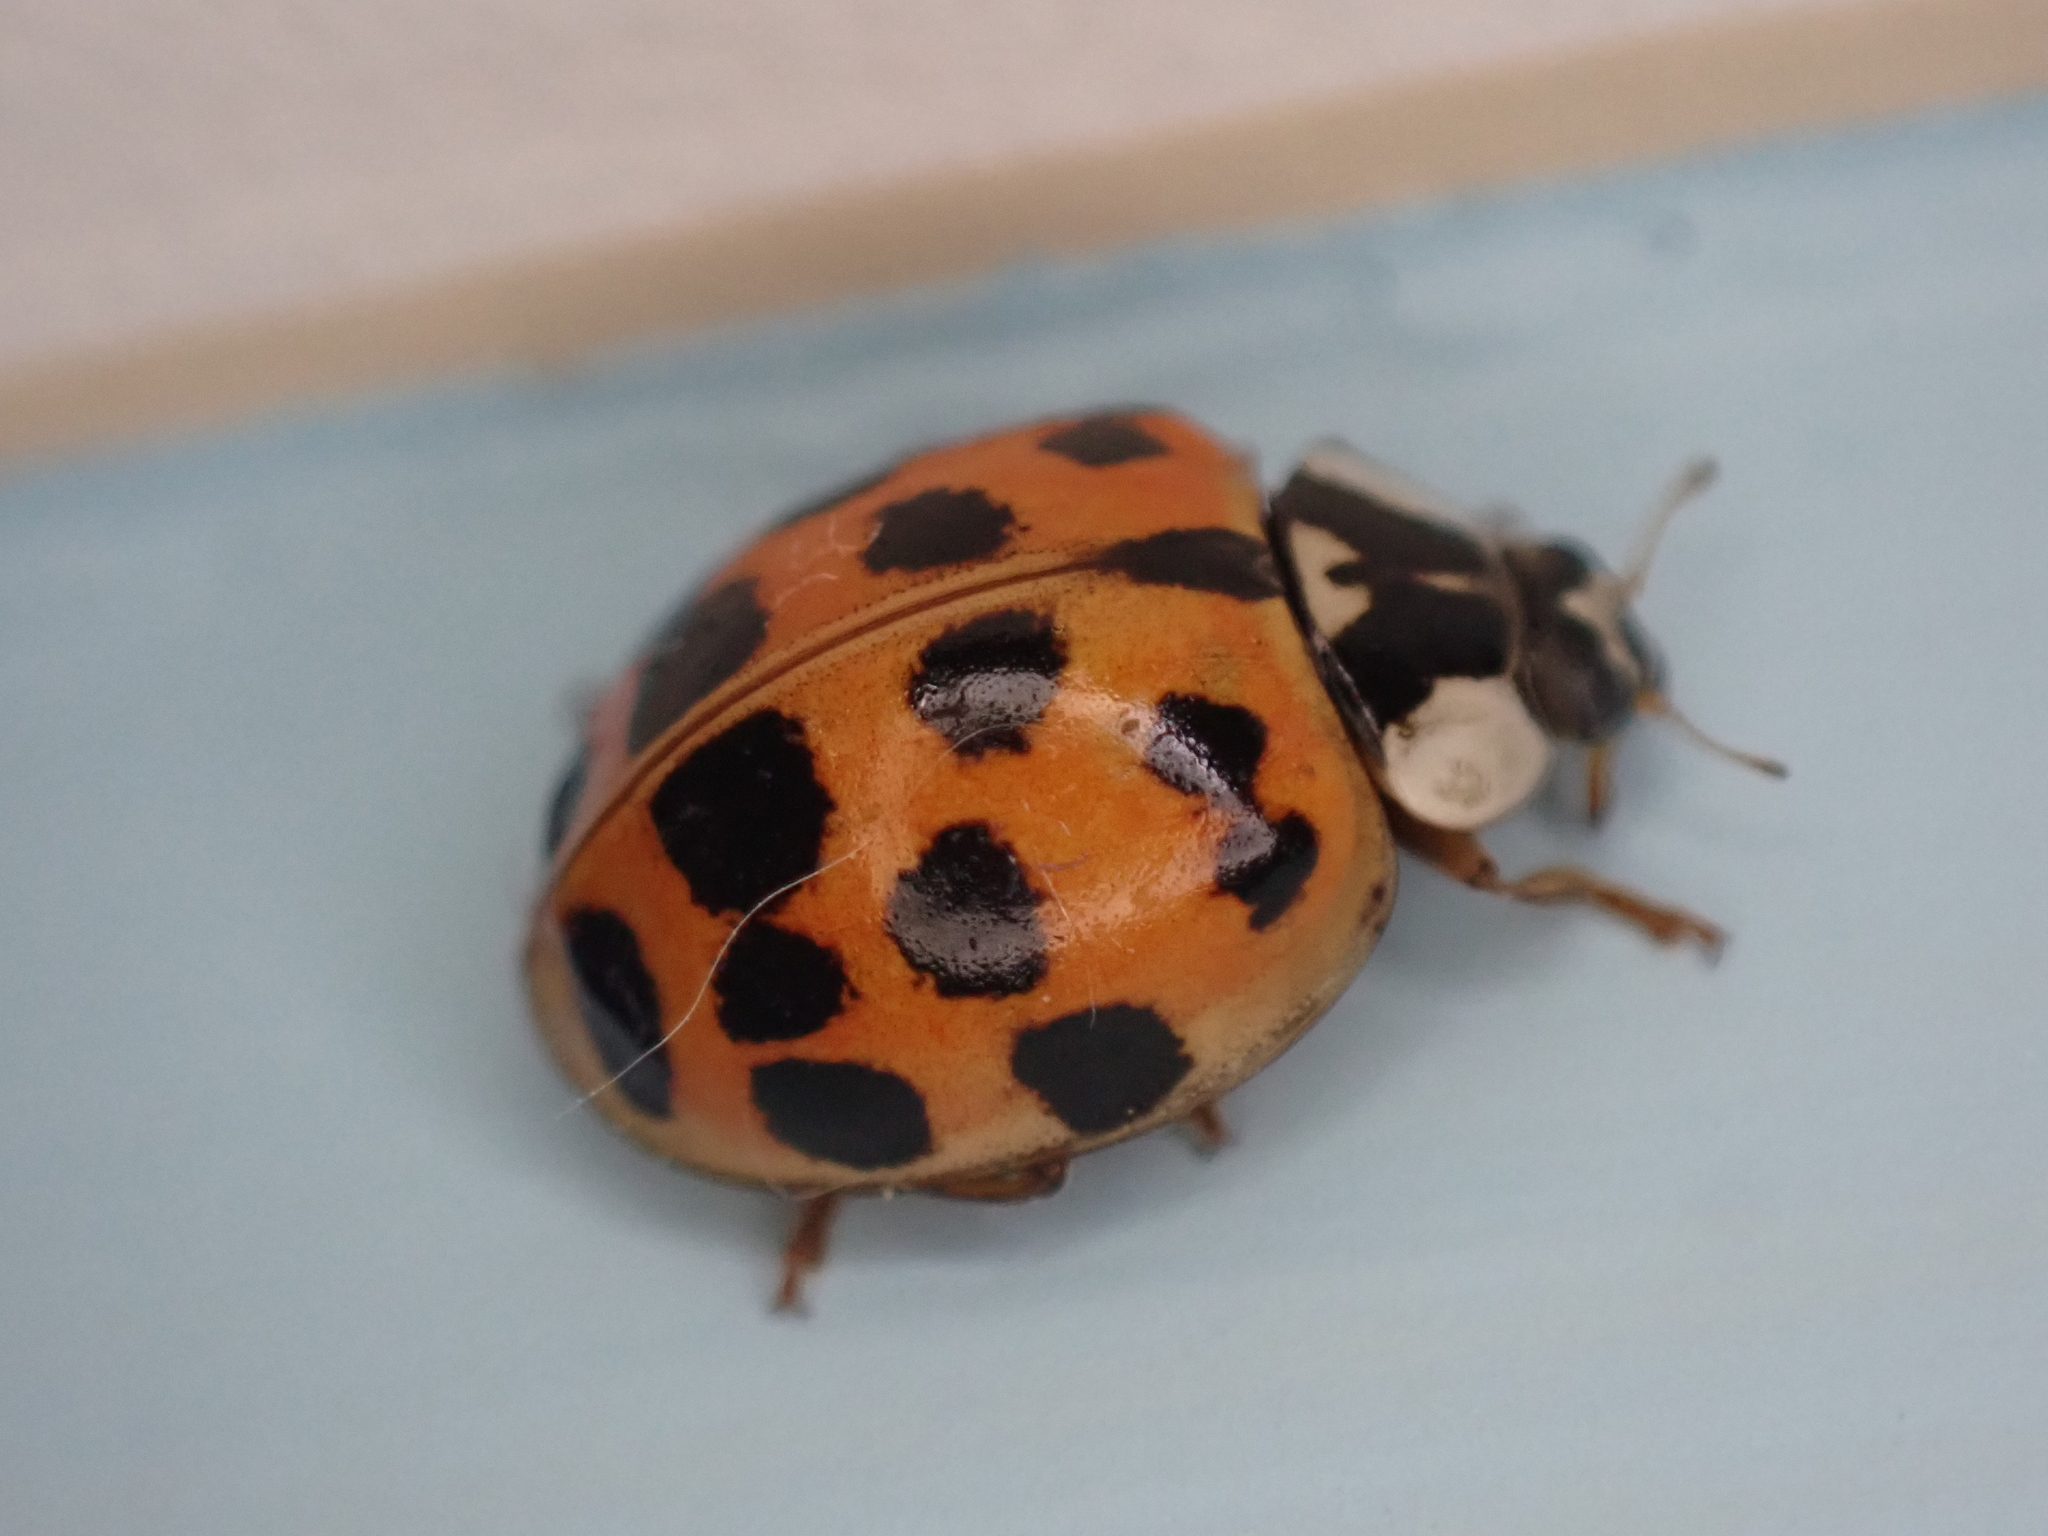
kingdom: Animalia
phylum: Arthropoda
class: Insecta
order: Coleoptera
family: Coccinellidae
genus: Harmonia
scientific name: Harmonia axyridis
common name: Harlequin ladybird
